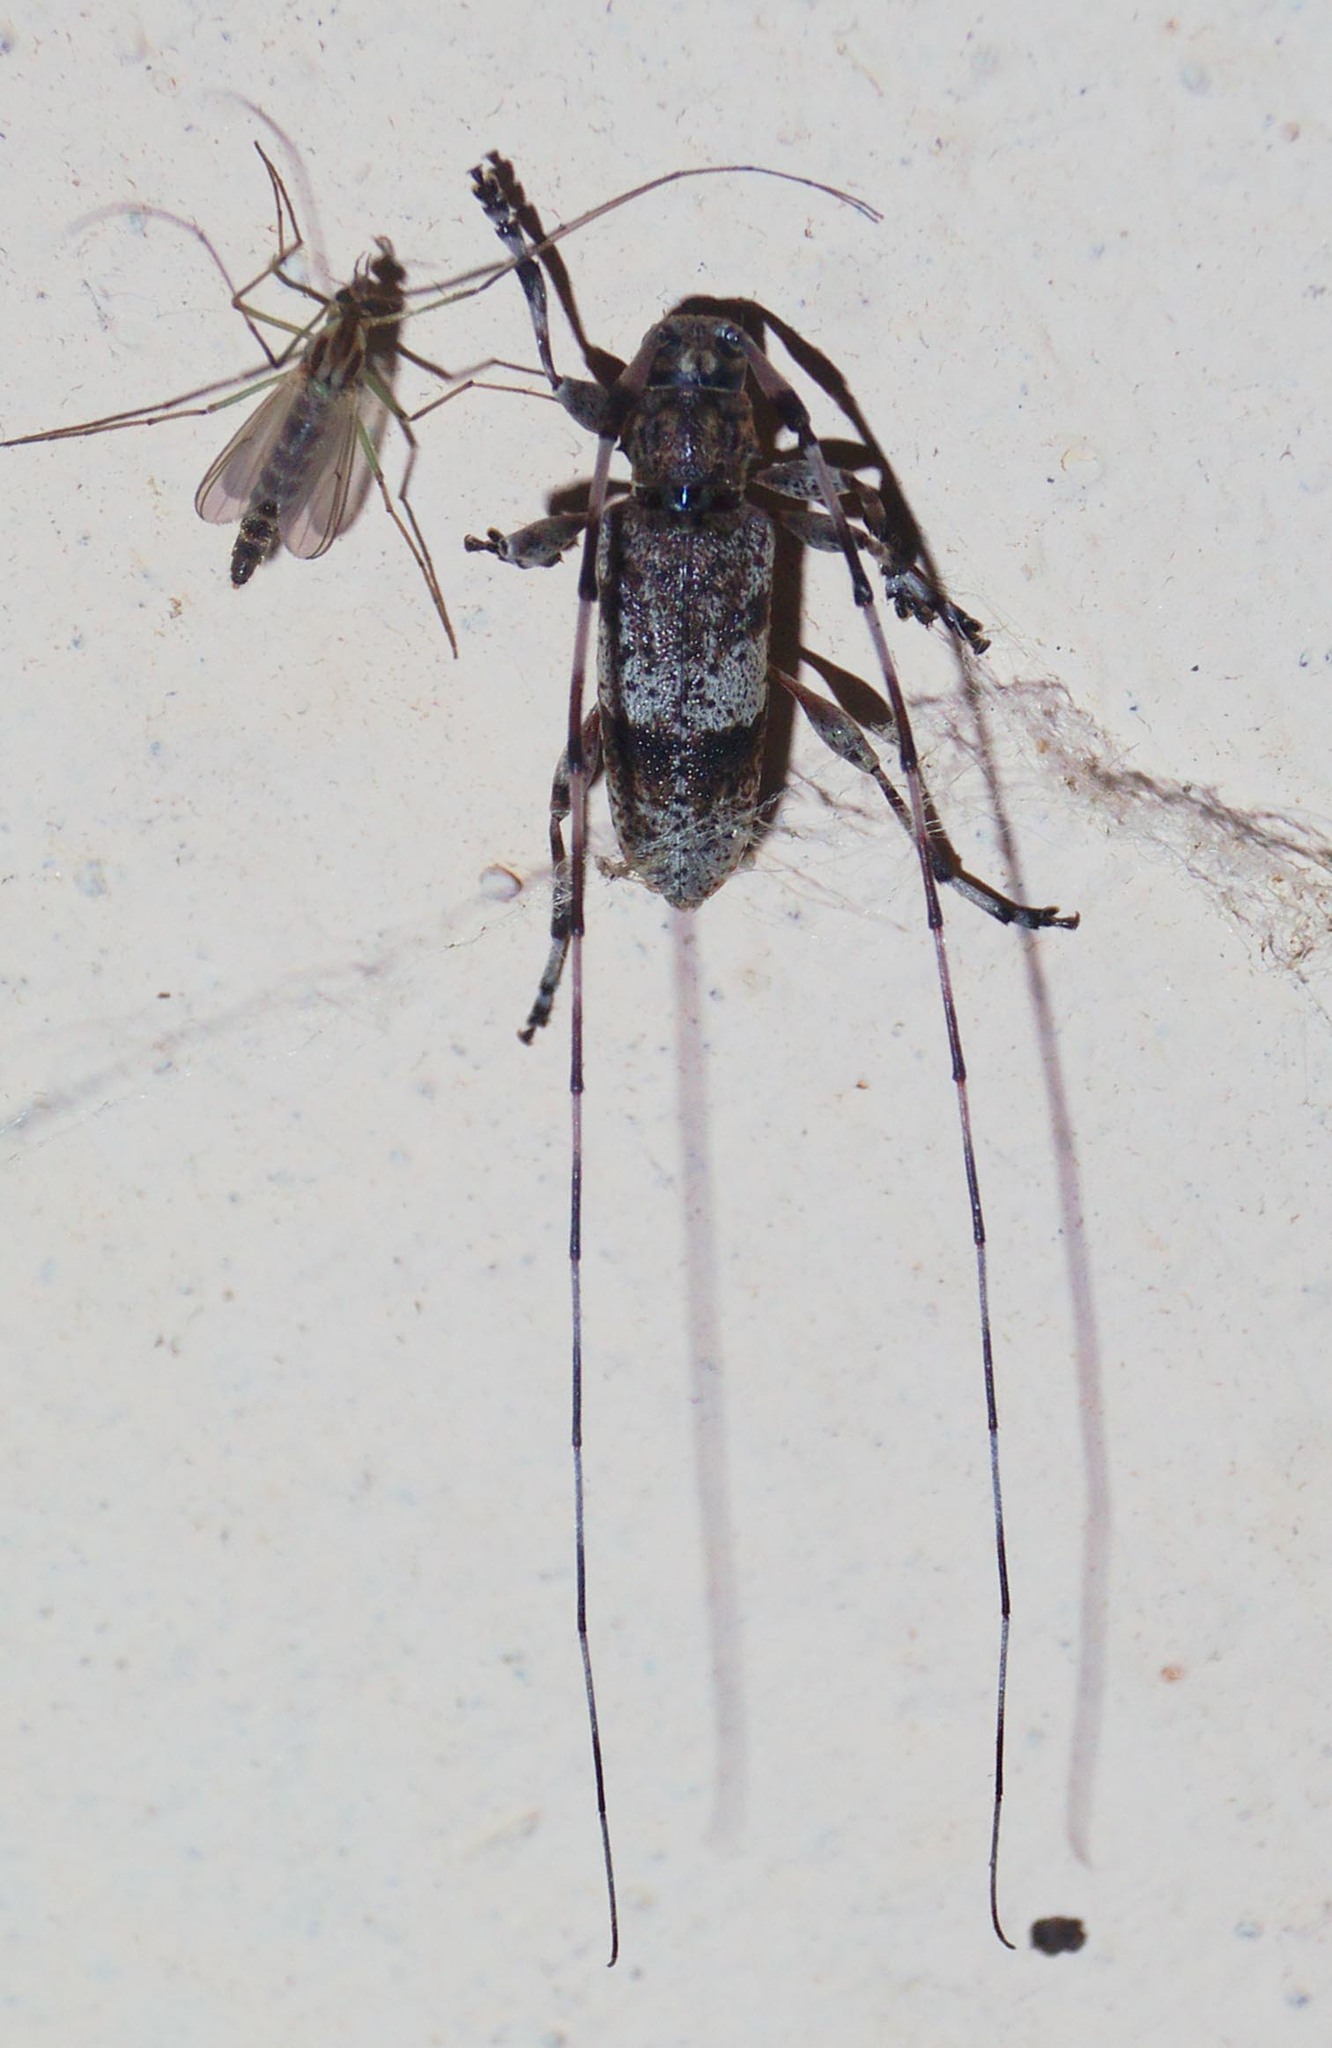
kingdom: Animalia
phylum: Arthropoda
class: Insecta
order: Coleoptera
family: Cerambycidae
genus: Acanthocinus
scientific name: Acanthocinus griseus
